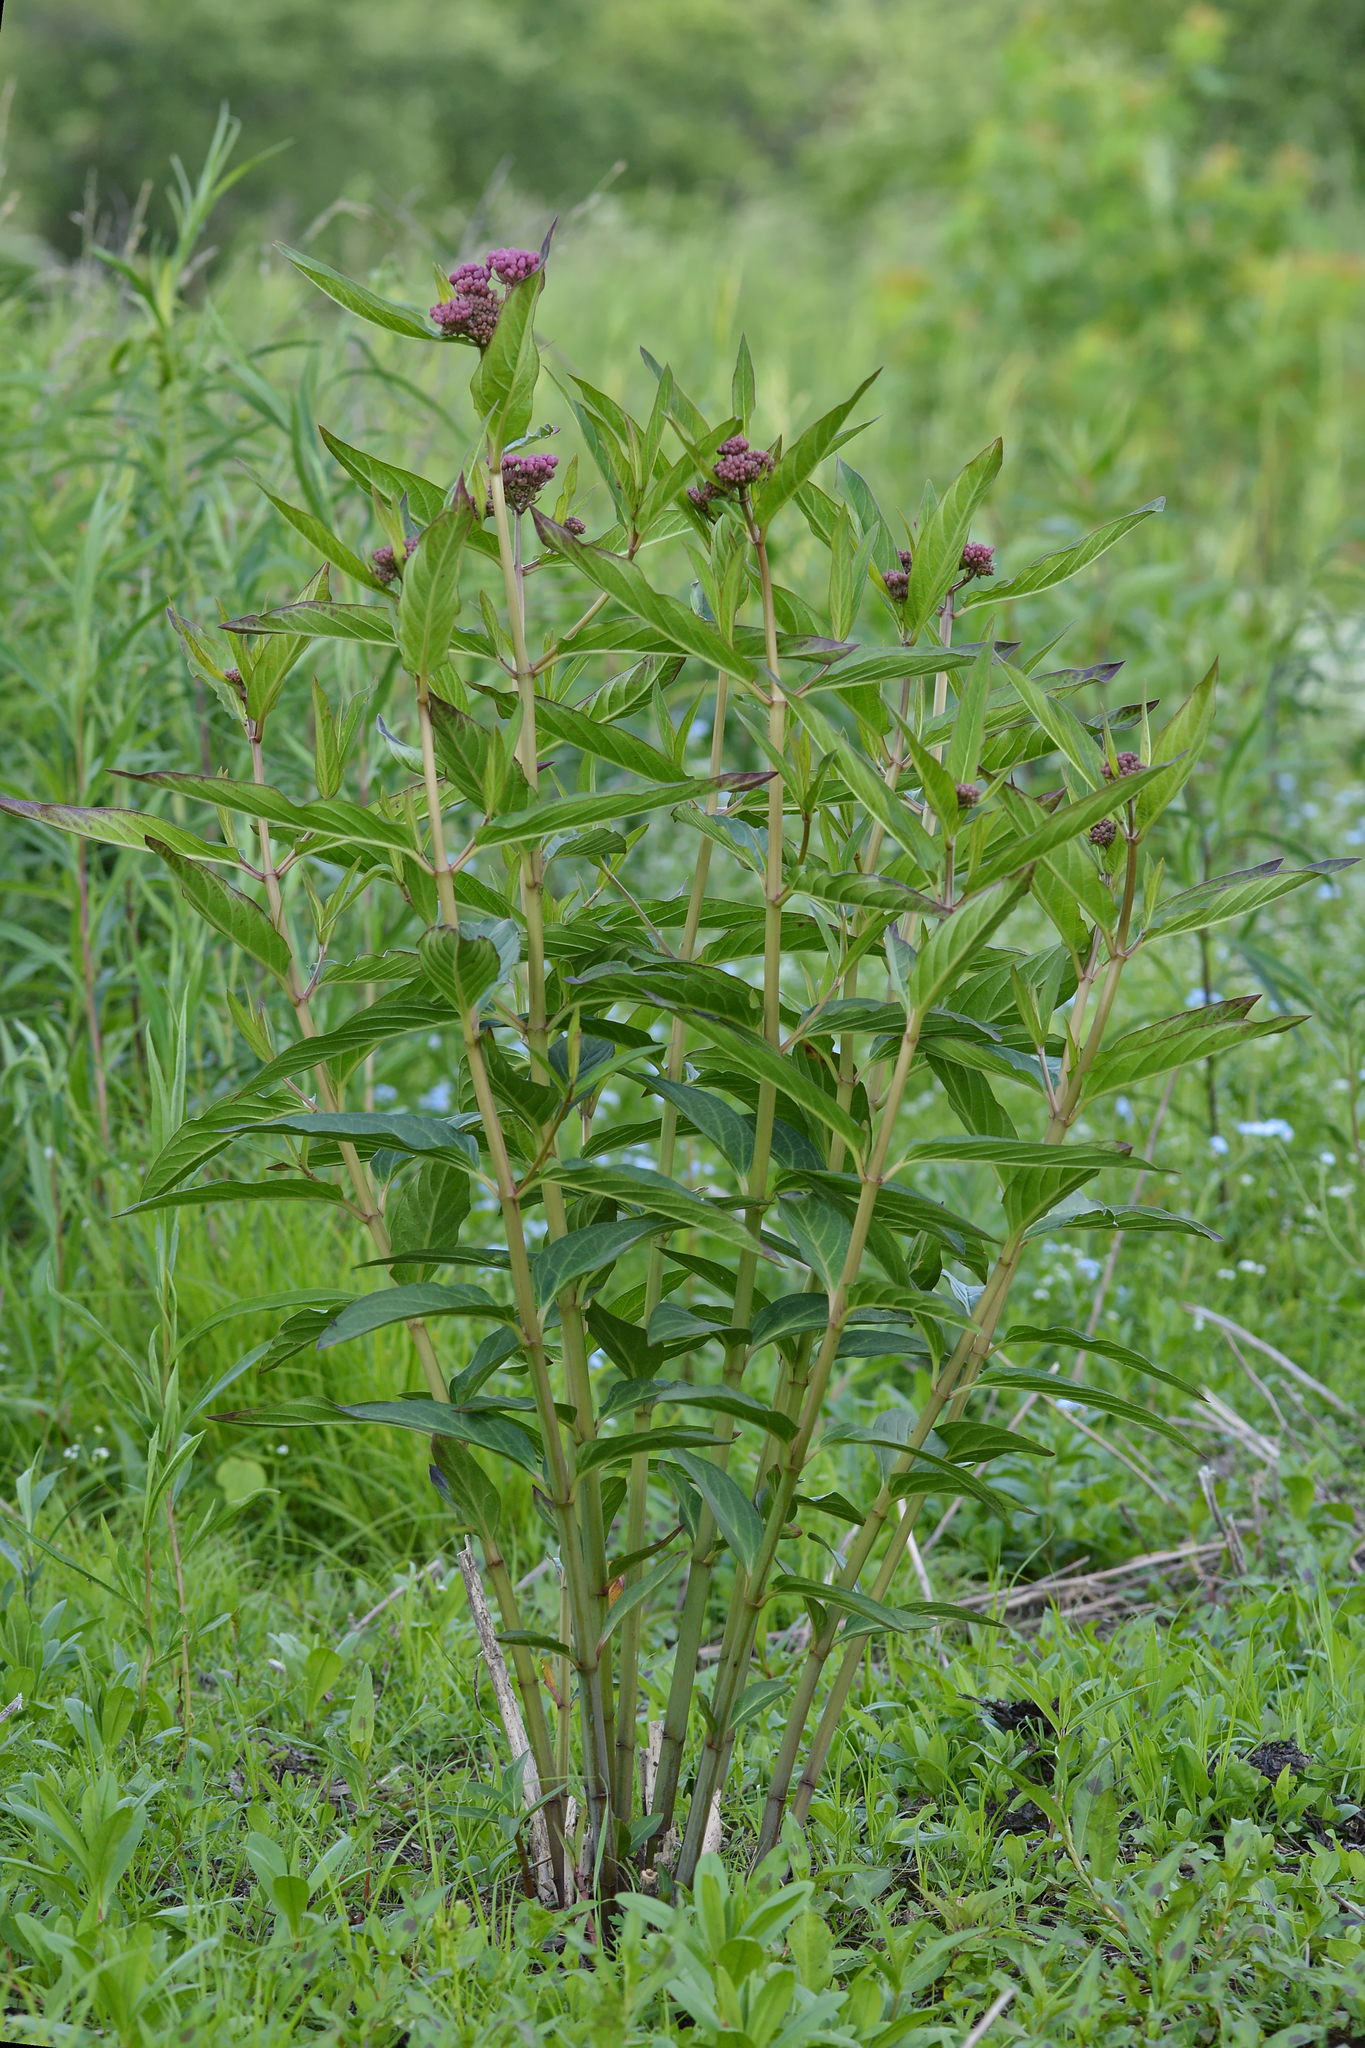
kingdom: Plantae
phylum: Tracheophyta
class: Magnoliopsida
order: Gentianales
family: Apocynaceae
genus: Asclepias
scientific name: Asclepias incarnata
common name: Swamp milkweed
